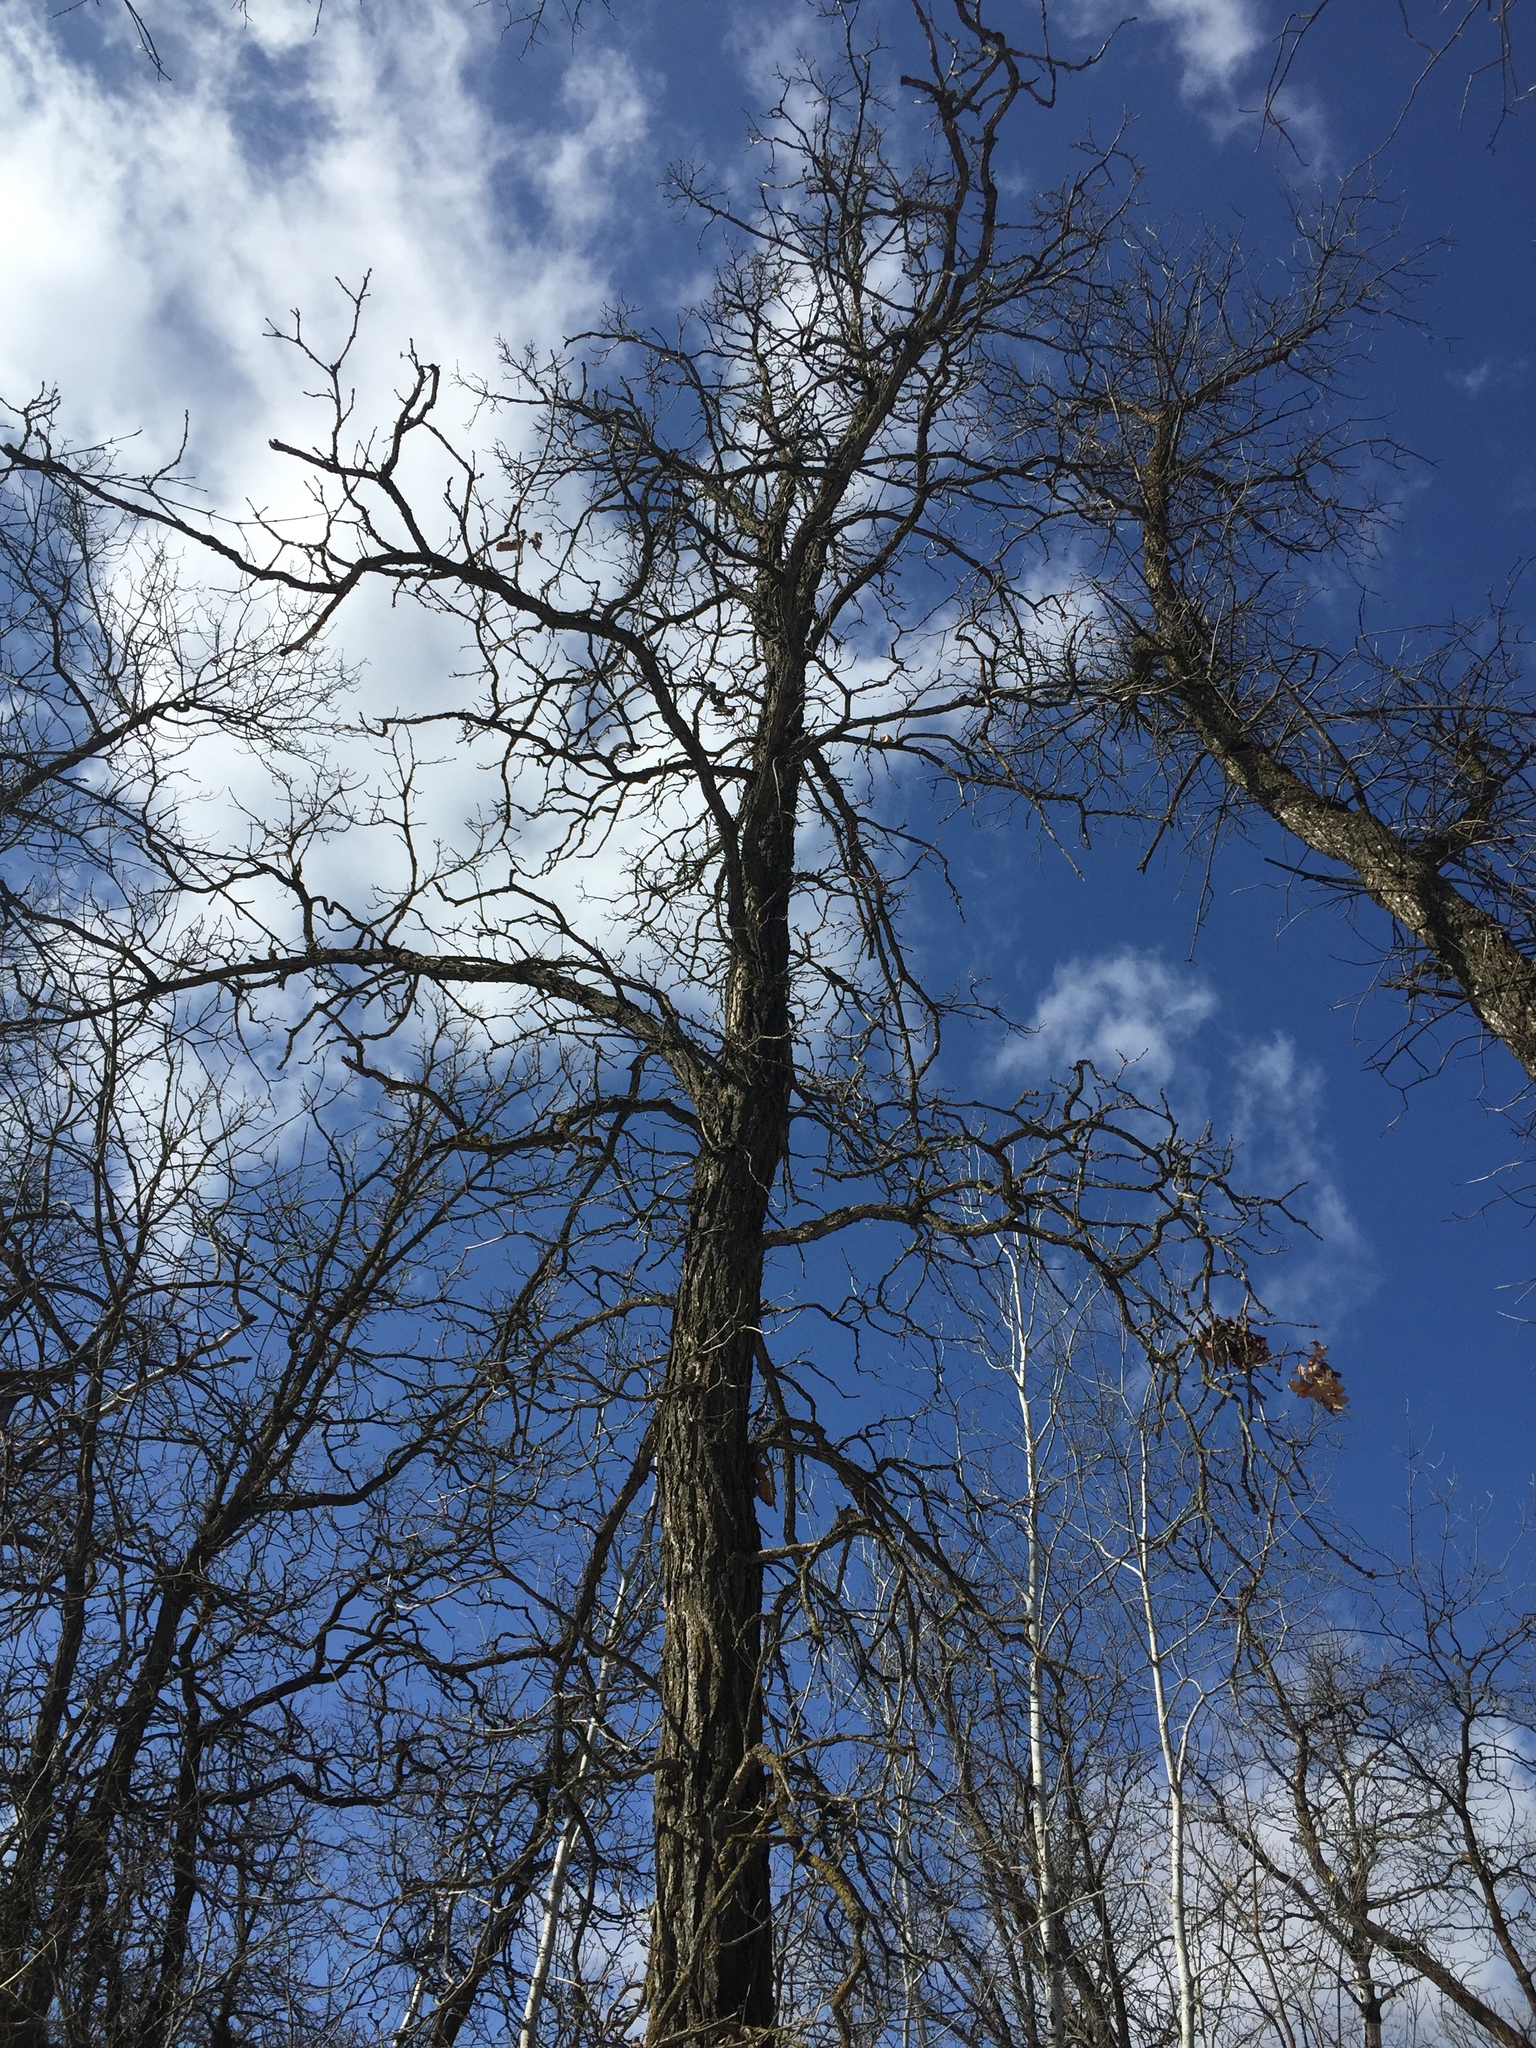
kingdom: Plantae
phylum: Tracheophyta
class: Magnoliopsida
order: Fagales
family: Fagaceae
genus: Quercus
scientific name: Quercus macrocarpa
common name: Bur oak
